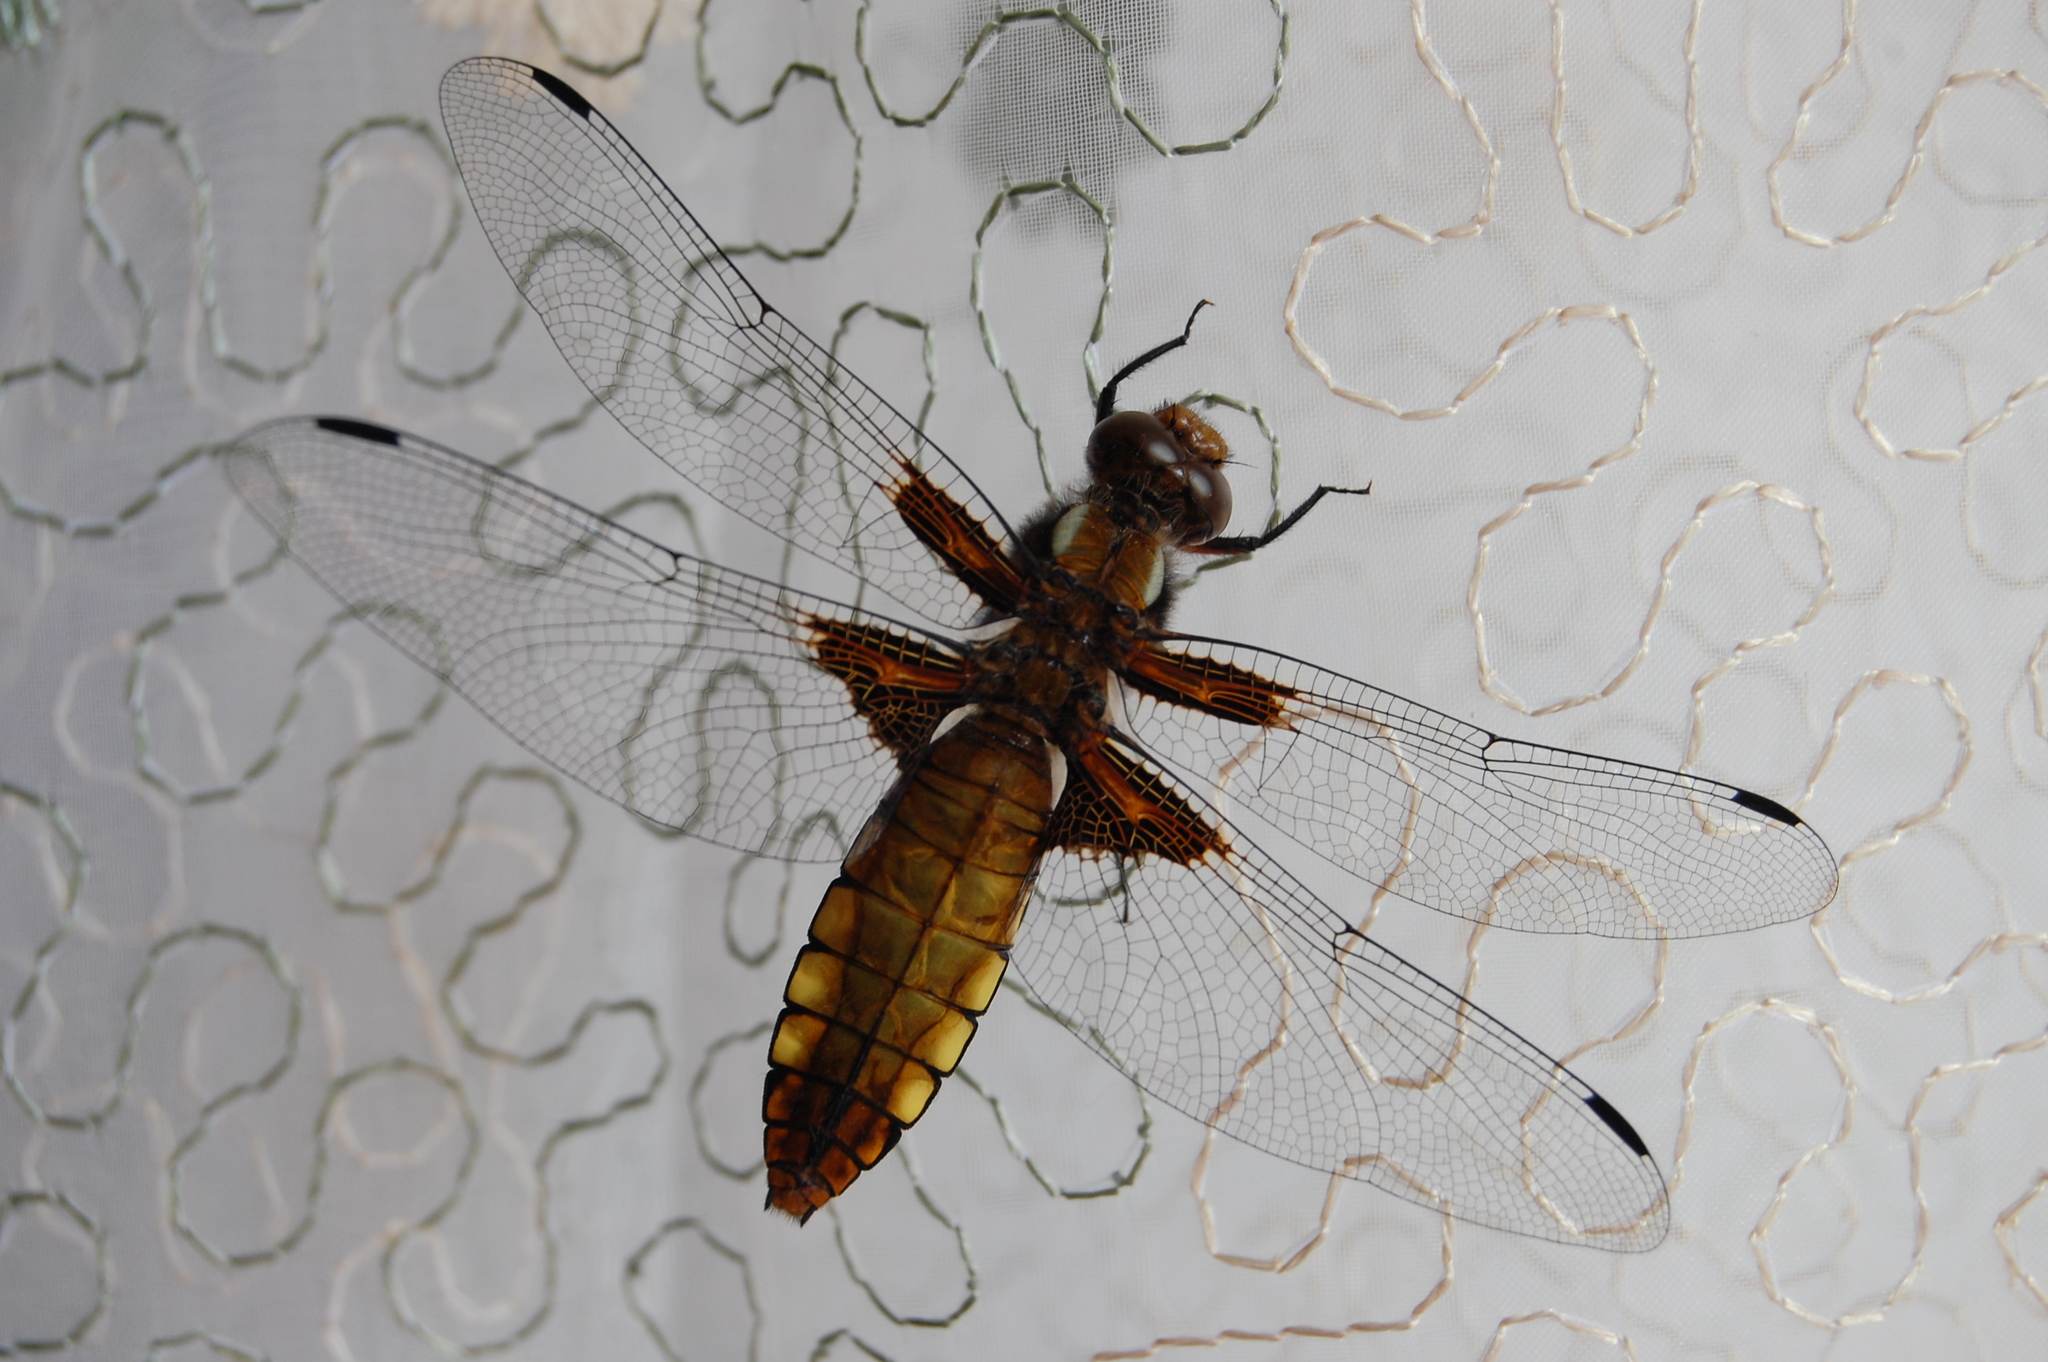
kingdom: Animalia
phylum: Arthropoda
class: Insecta
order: Odonata
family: Libellulidae
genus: Libellula
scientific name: Libellula depressa
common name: Broad-bodied chaser
